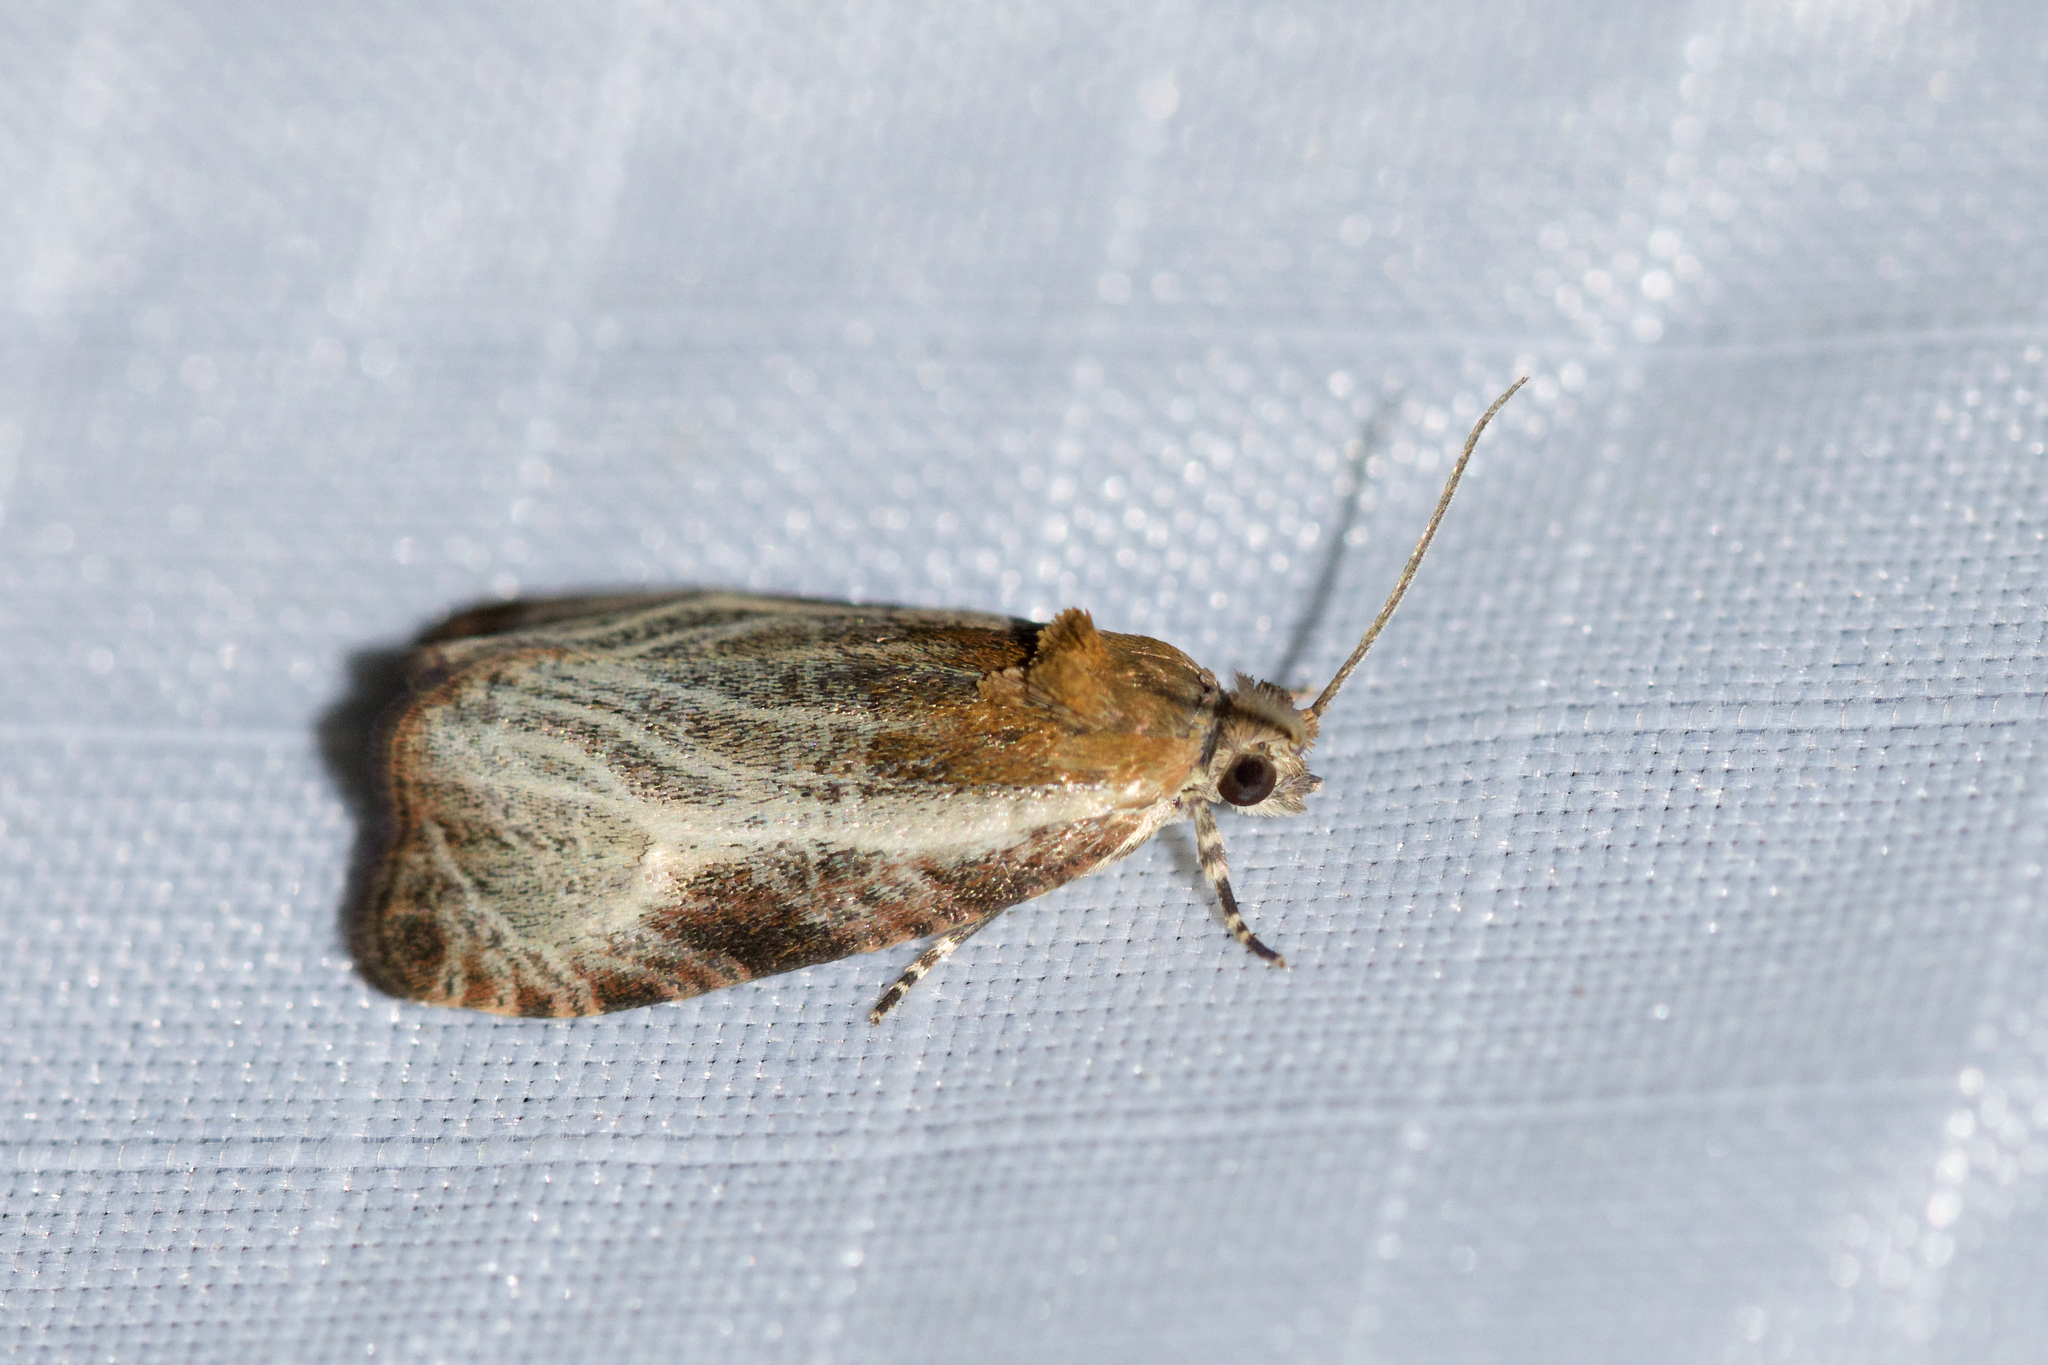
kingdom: Animalia
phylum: Arthropoda
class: Insecta
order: Lepidoptera
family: Tortricidae
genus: Olethreutes
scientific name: Olethreutes quadrifidum
